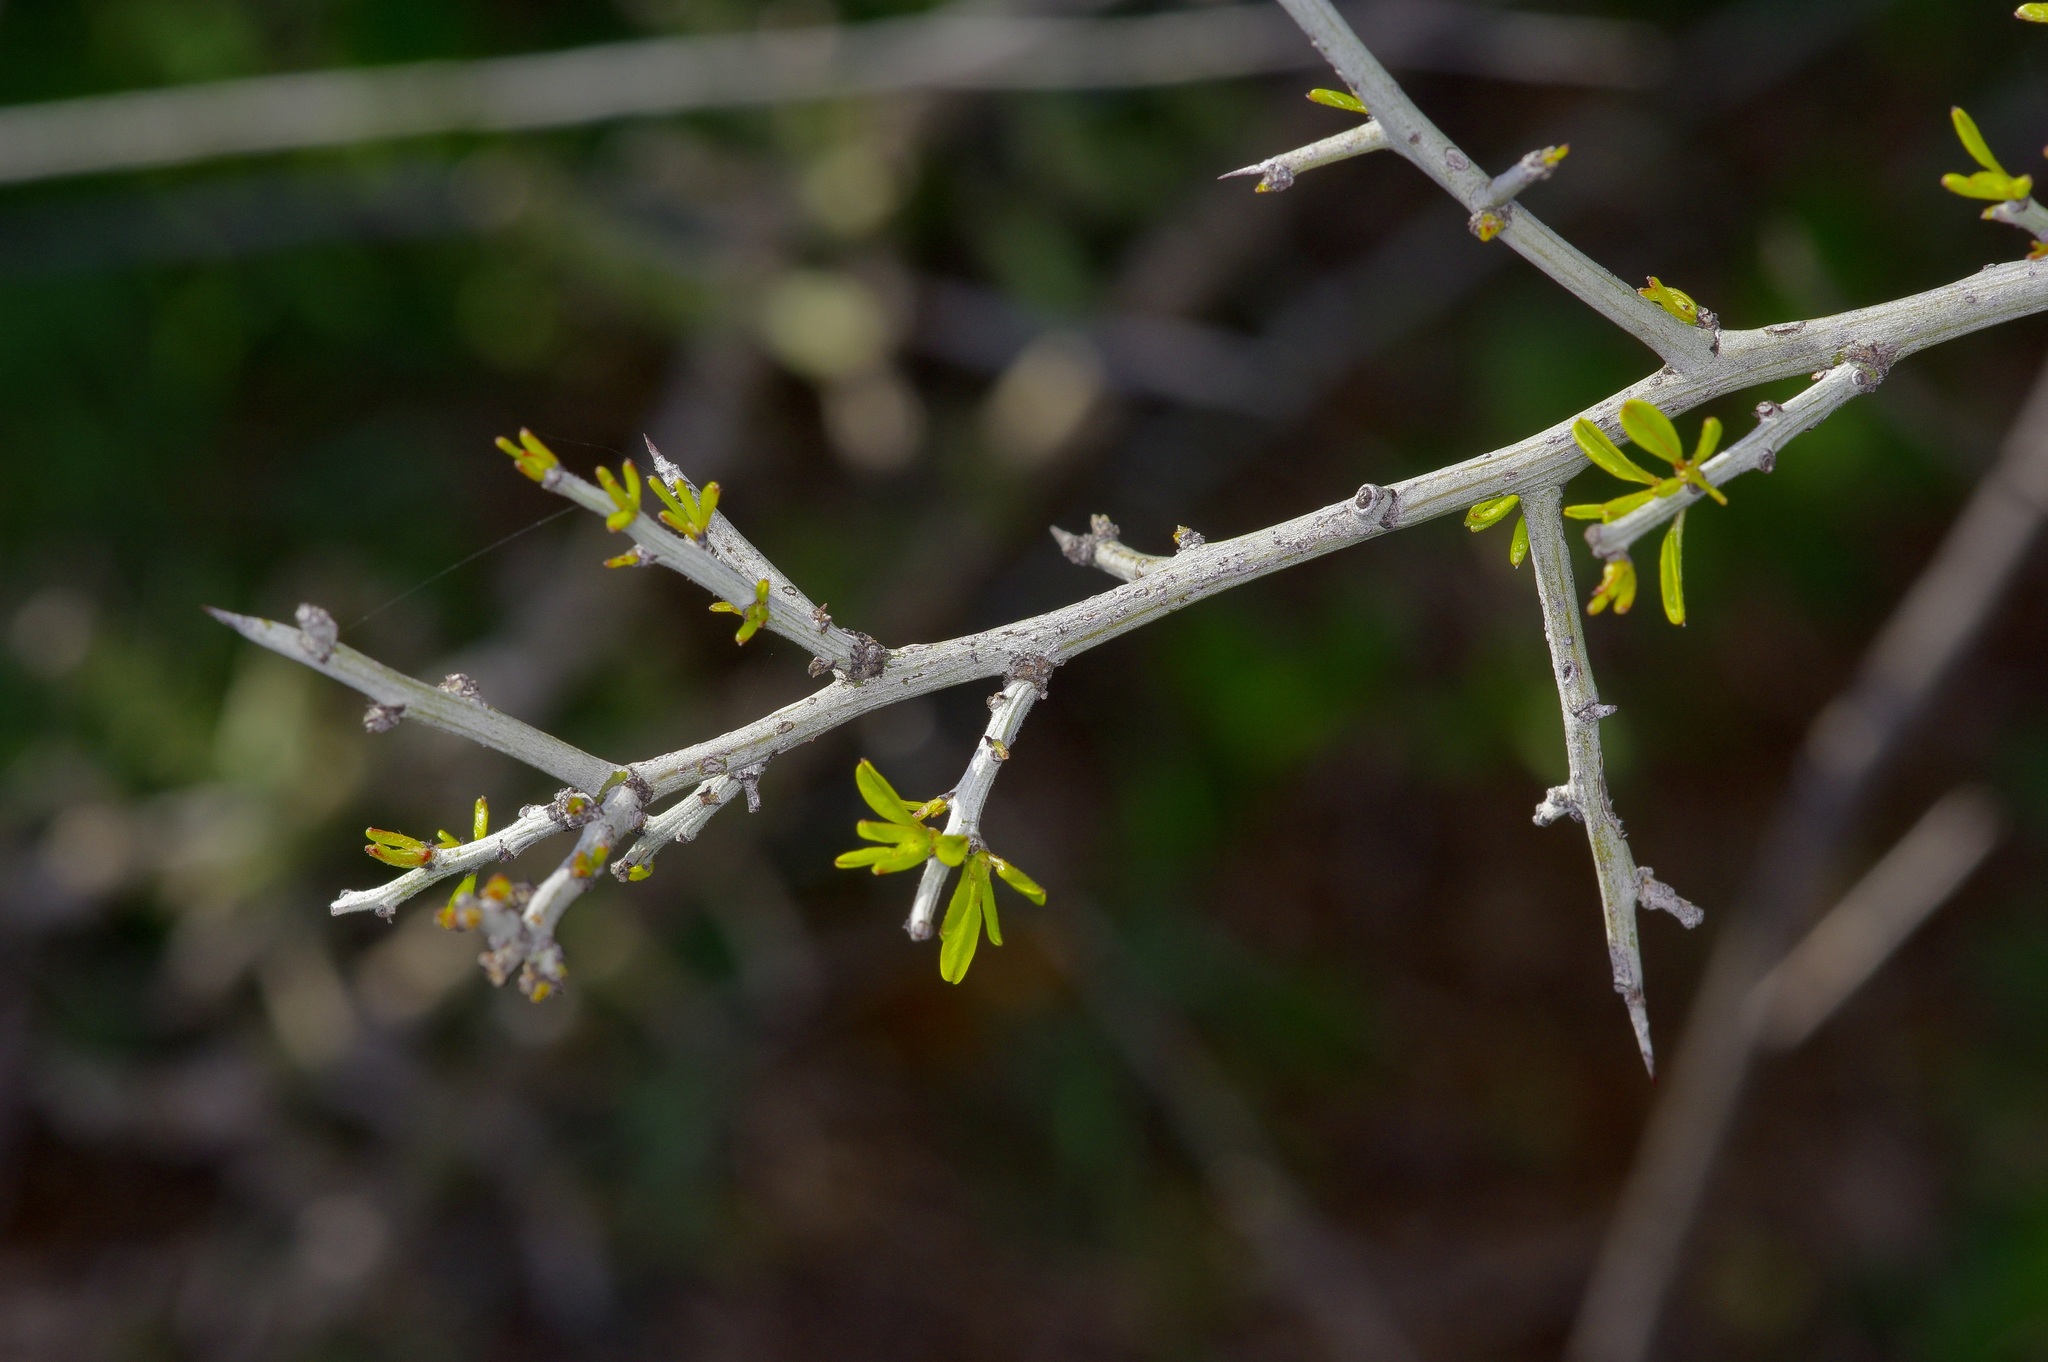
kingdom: Plantae
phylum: Tracheophyta
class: Magnoliopsida
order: Rosales
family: Rhamnaceae
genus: Sarcomphalus
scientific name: Sarcomphalus obtusifolius
